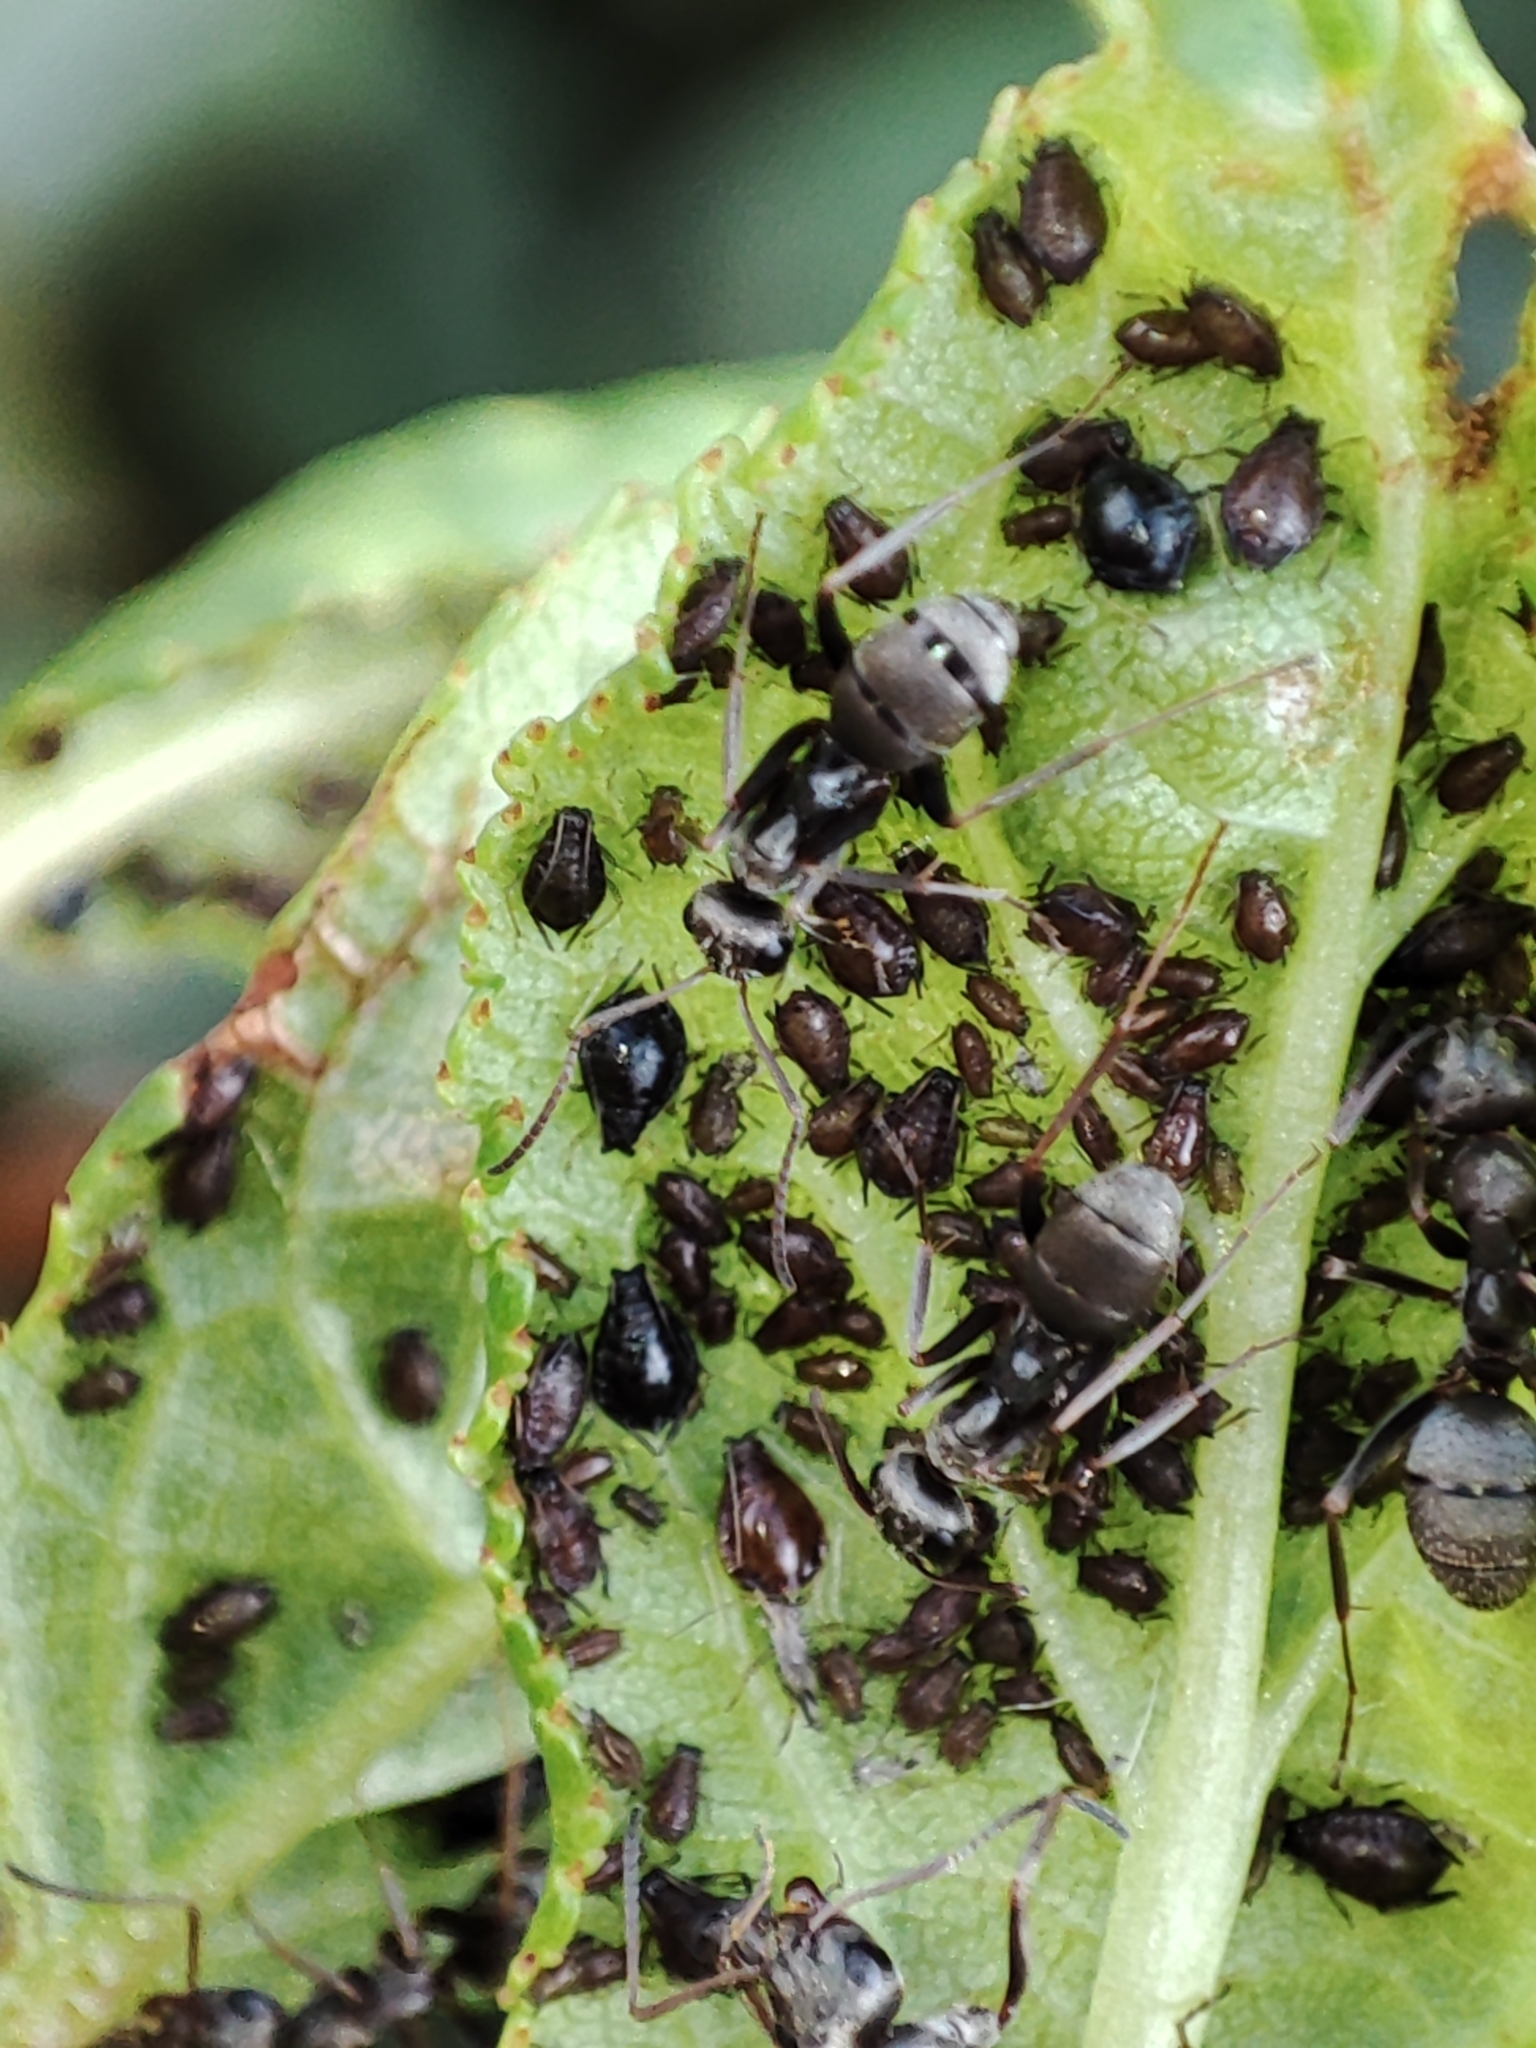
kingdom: Animalia
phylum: Arthropoda
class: Insecta
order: Hymenoptera
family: Formicidae
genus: Formica
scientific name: Formica cinerea
